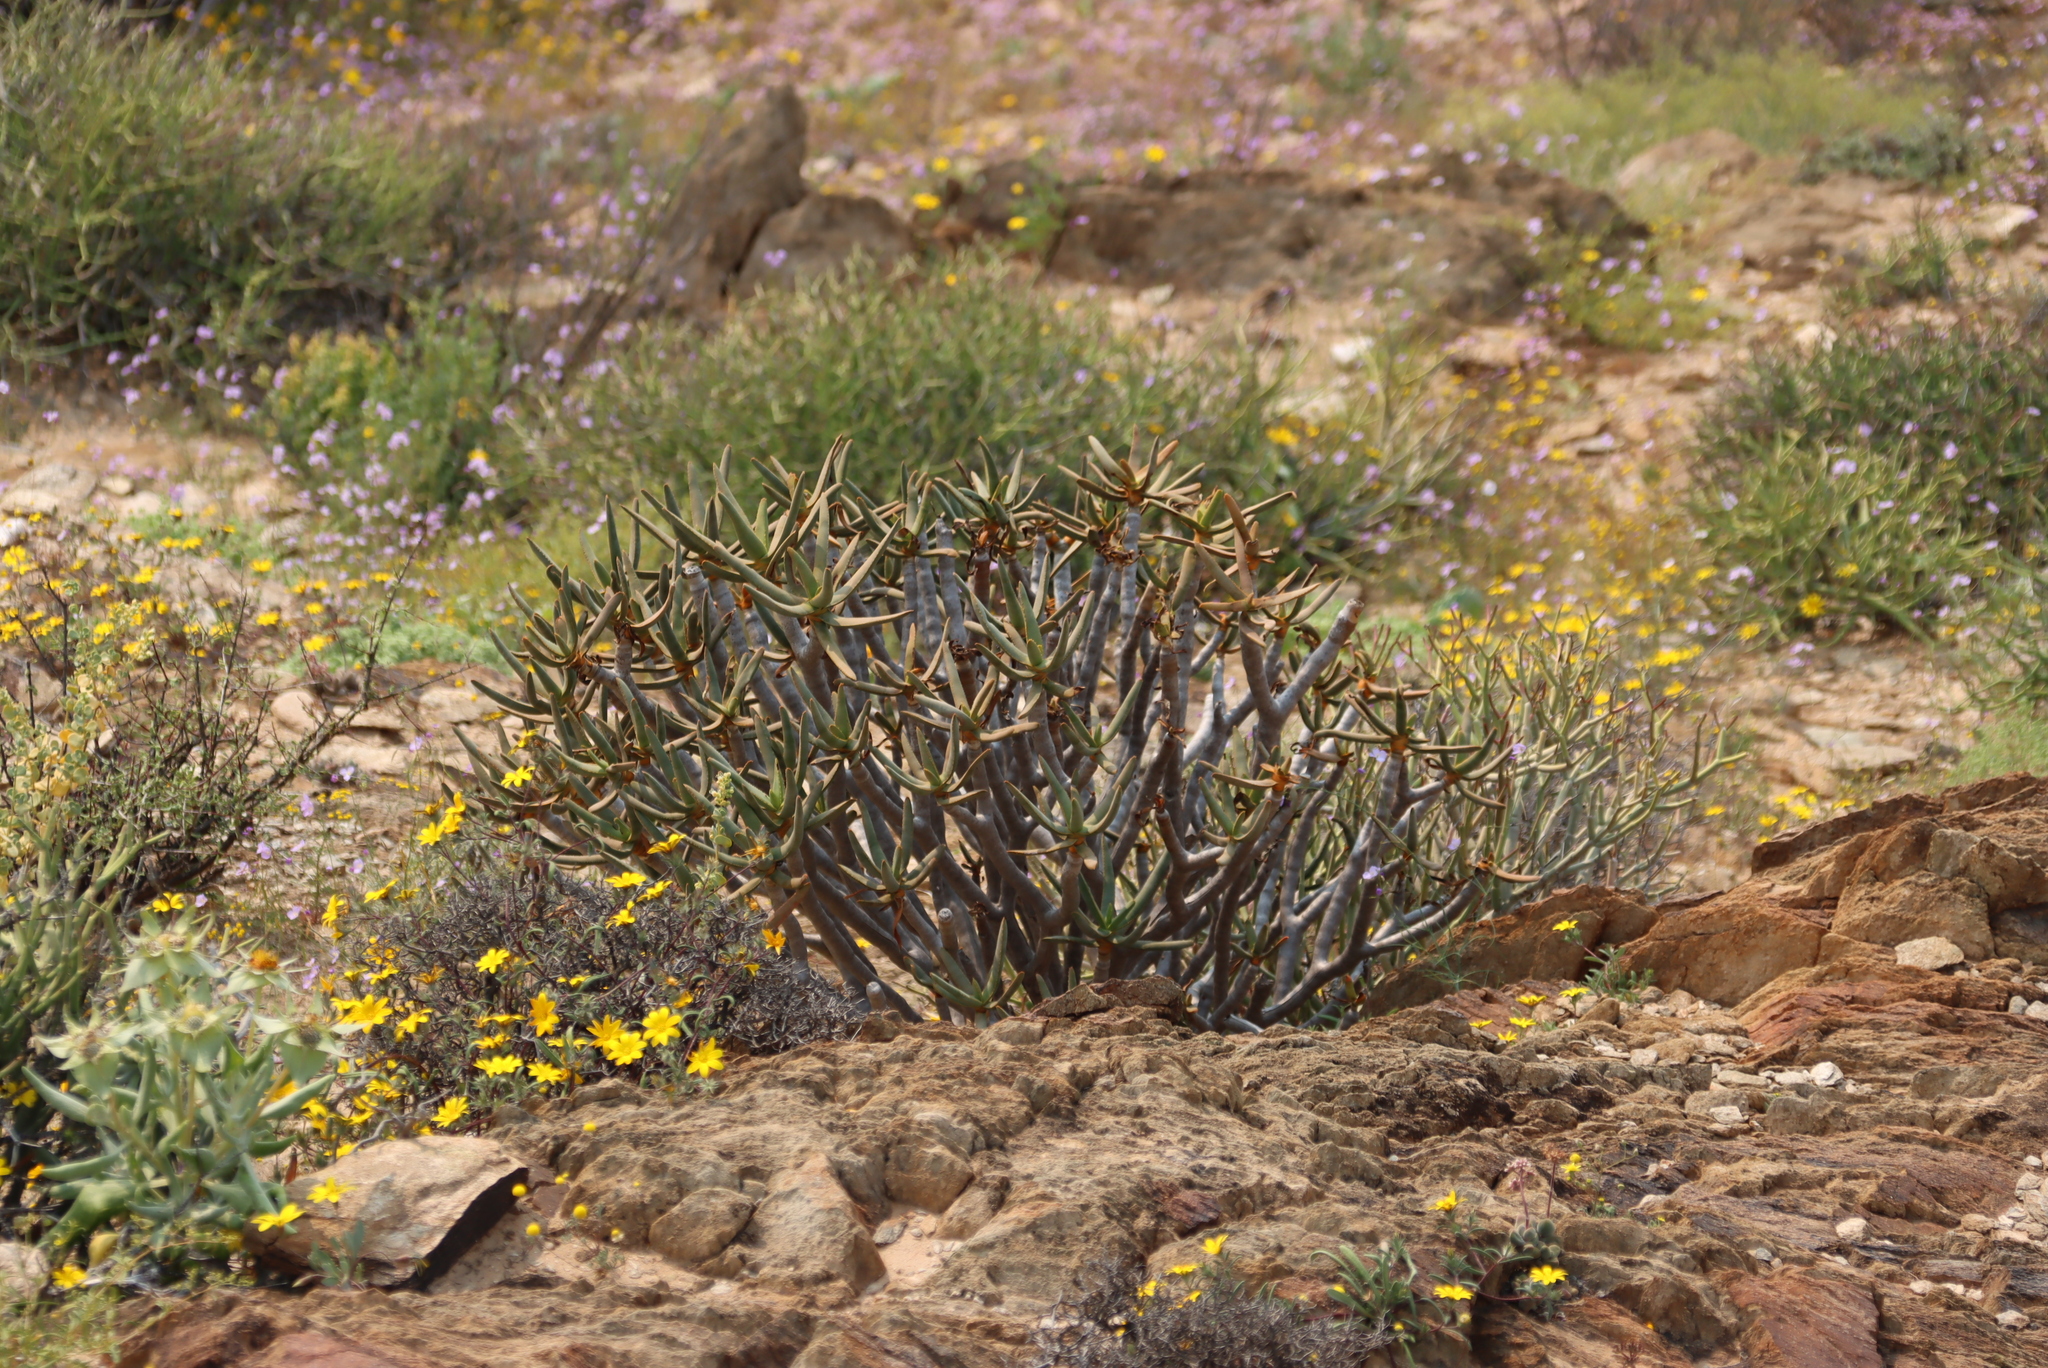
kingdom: Plantae
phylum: Tracheophyta
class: Liliopsida
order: Asparagales
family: Asphodelaceae
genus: Aloidendron
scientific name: Aloidendron ramosissimum
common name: Bush quiver tree
